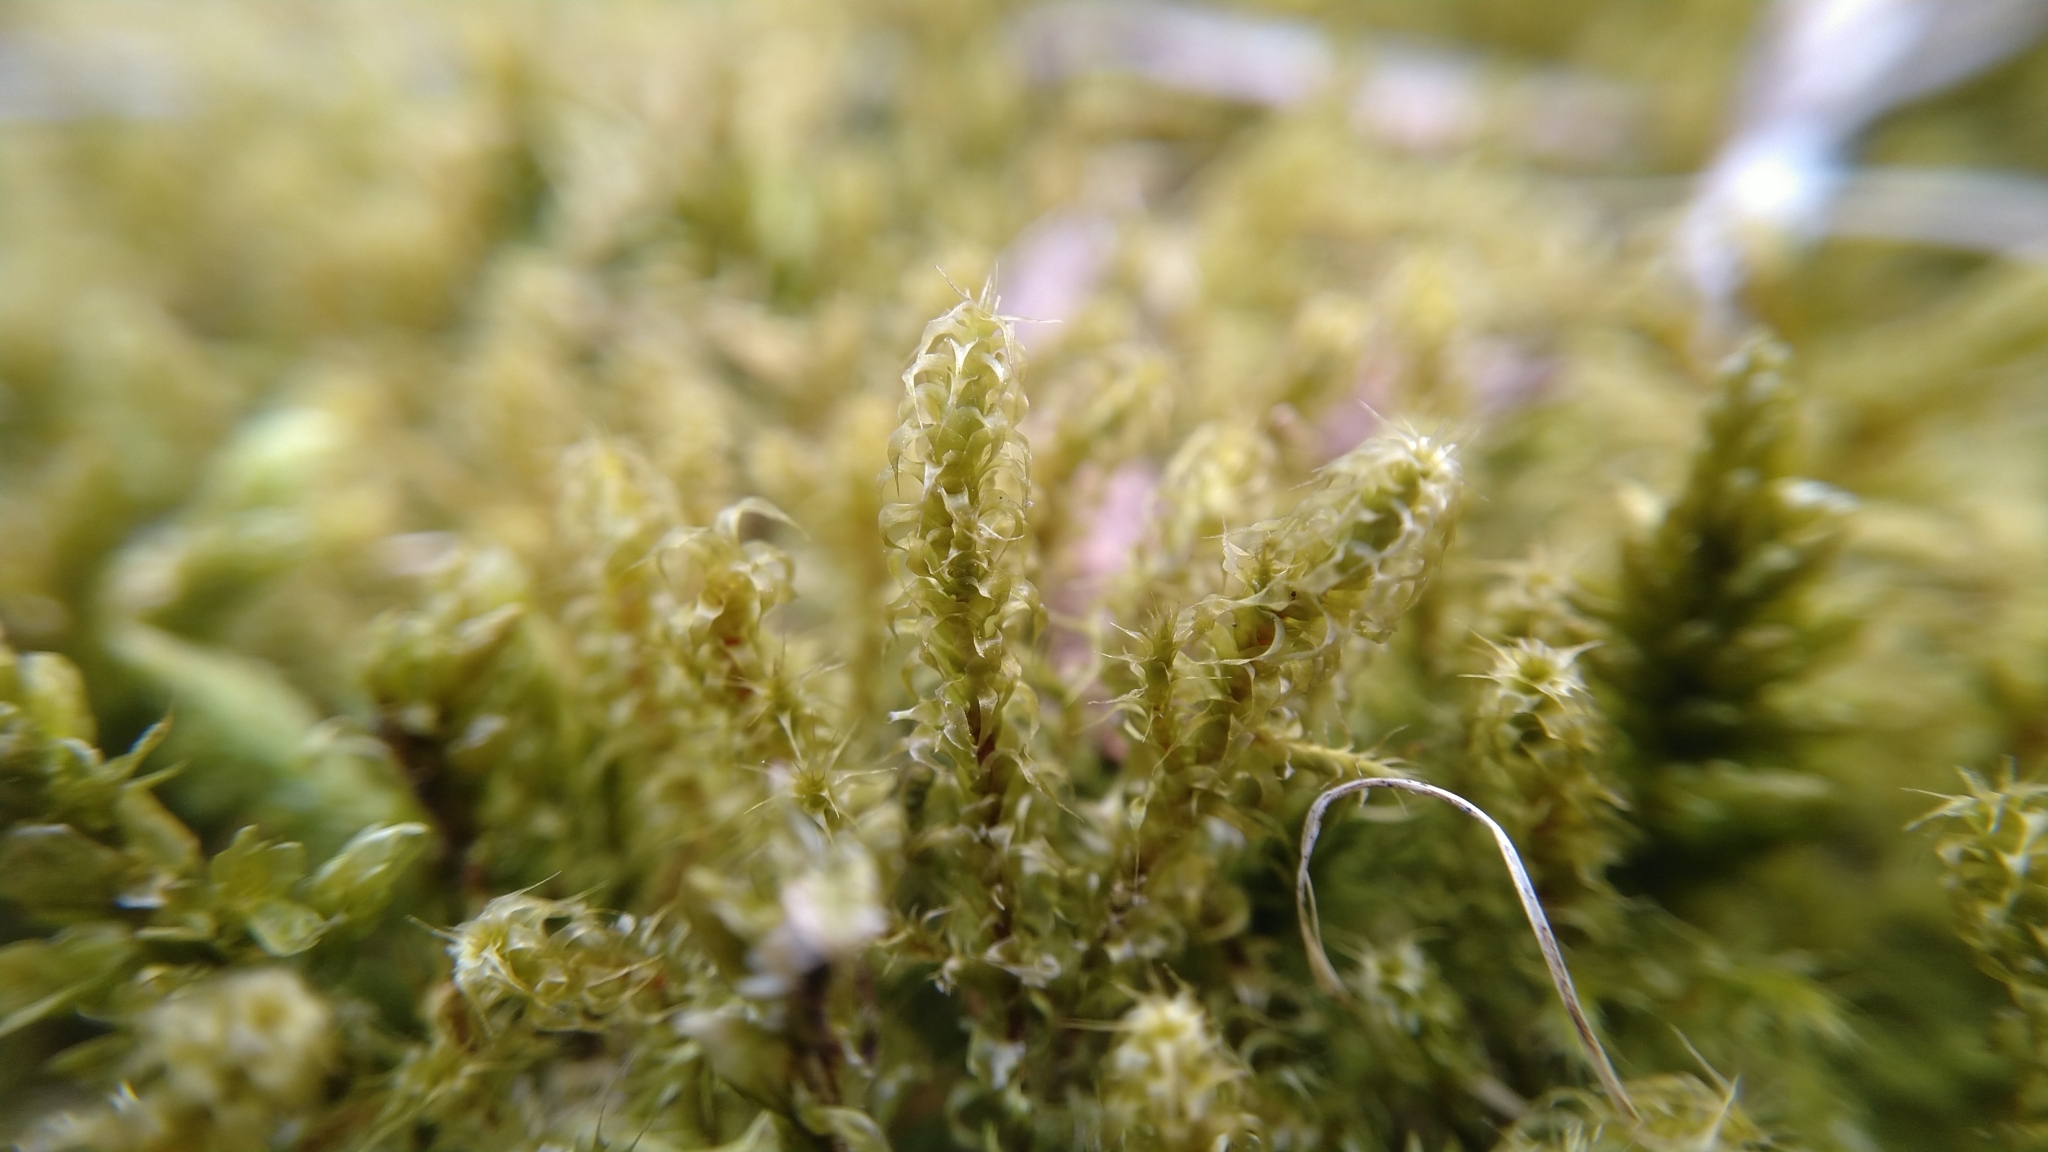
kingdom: Plantae
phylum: Bryophyta
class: Bryopsida
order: Hypnales
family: Hylocomiaceae
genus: Rhytidiadelphus
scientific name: Rhytidiadelphus squarrosus
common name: Springy turf-moss
